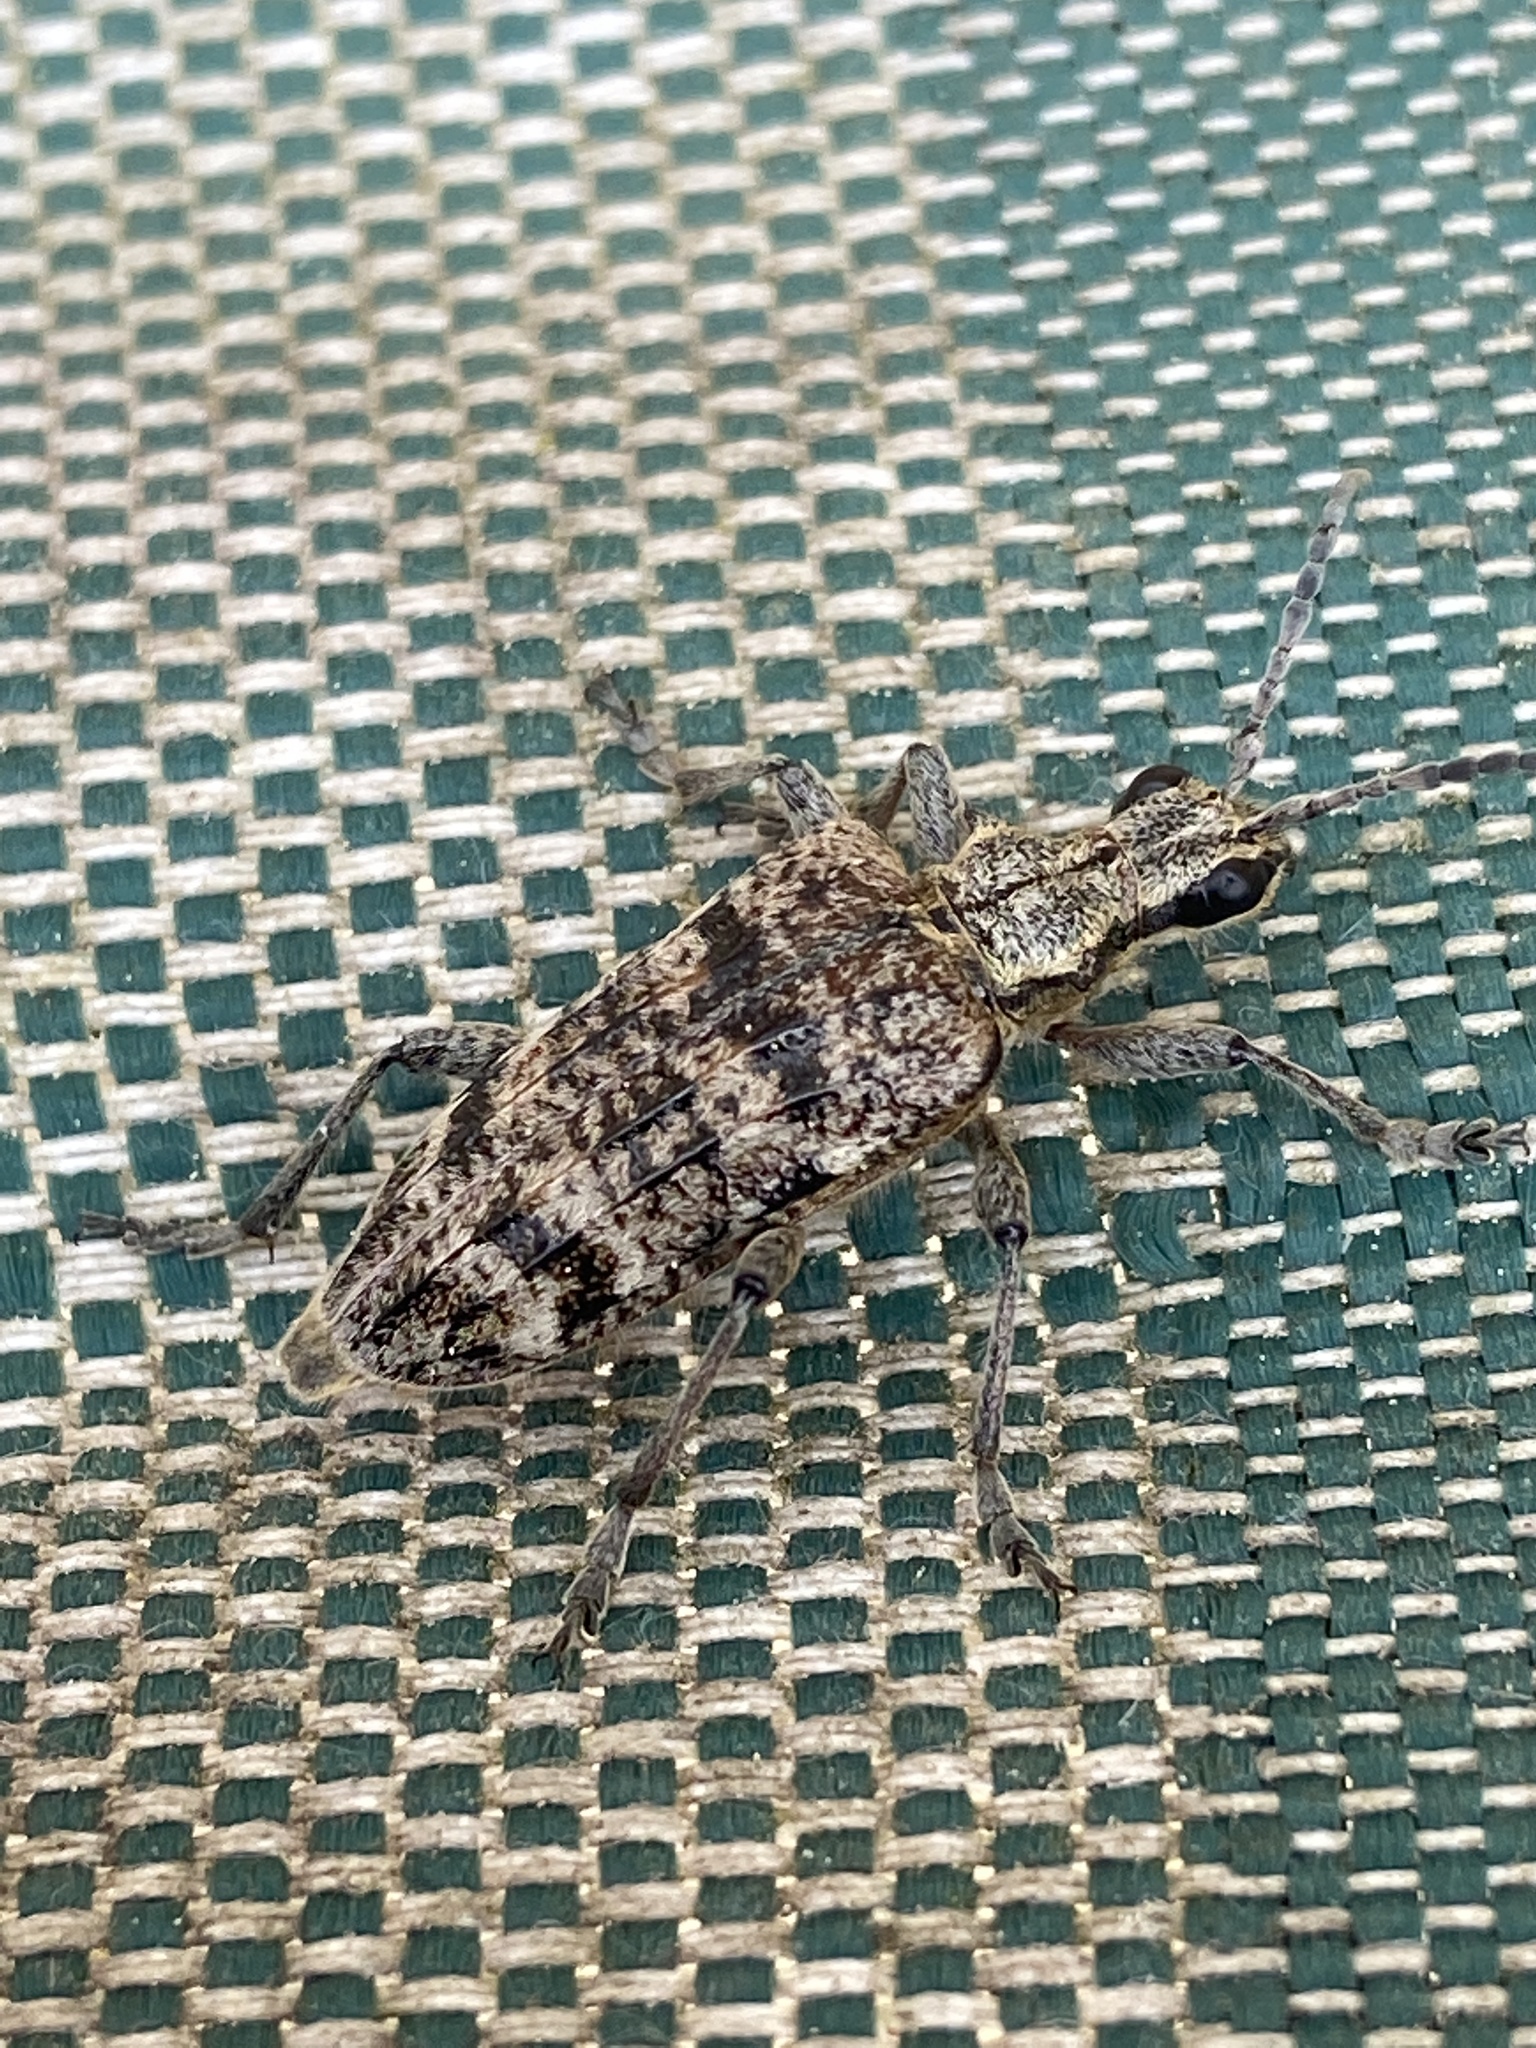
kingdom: Animalia
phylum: Arthropoda
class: Insecta
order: Coleoptera
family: Cerambycidae
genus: Rhagium
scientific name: Rhagium inquisitor
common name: Ribbed pine borer
